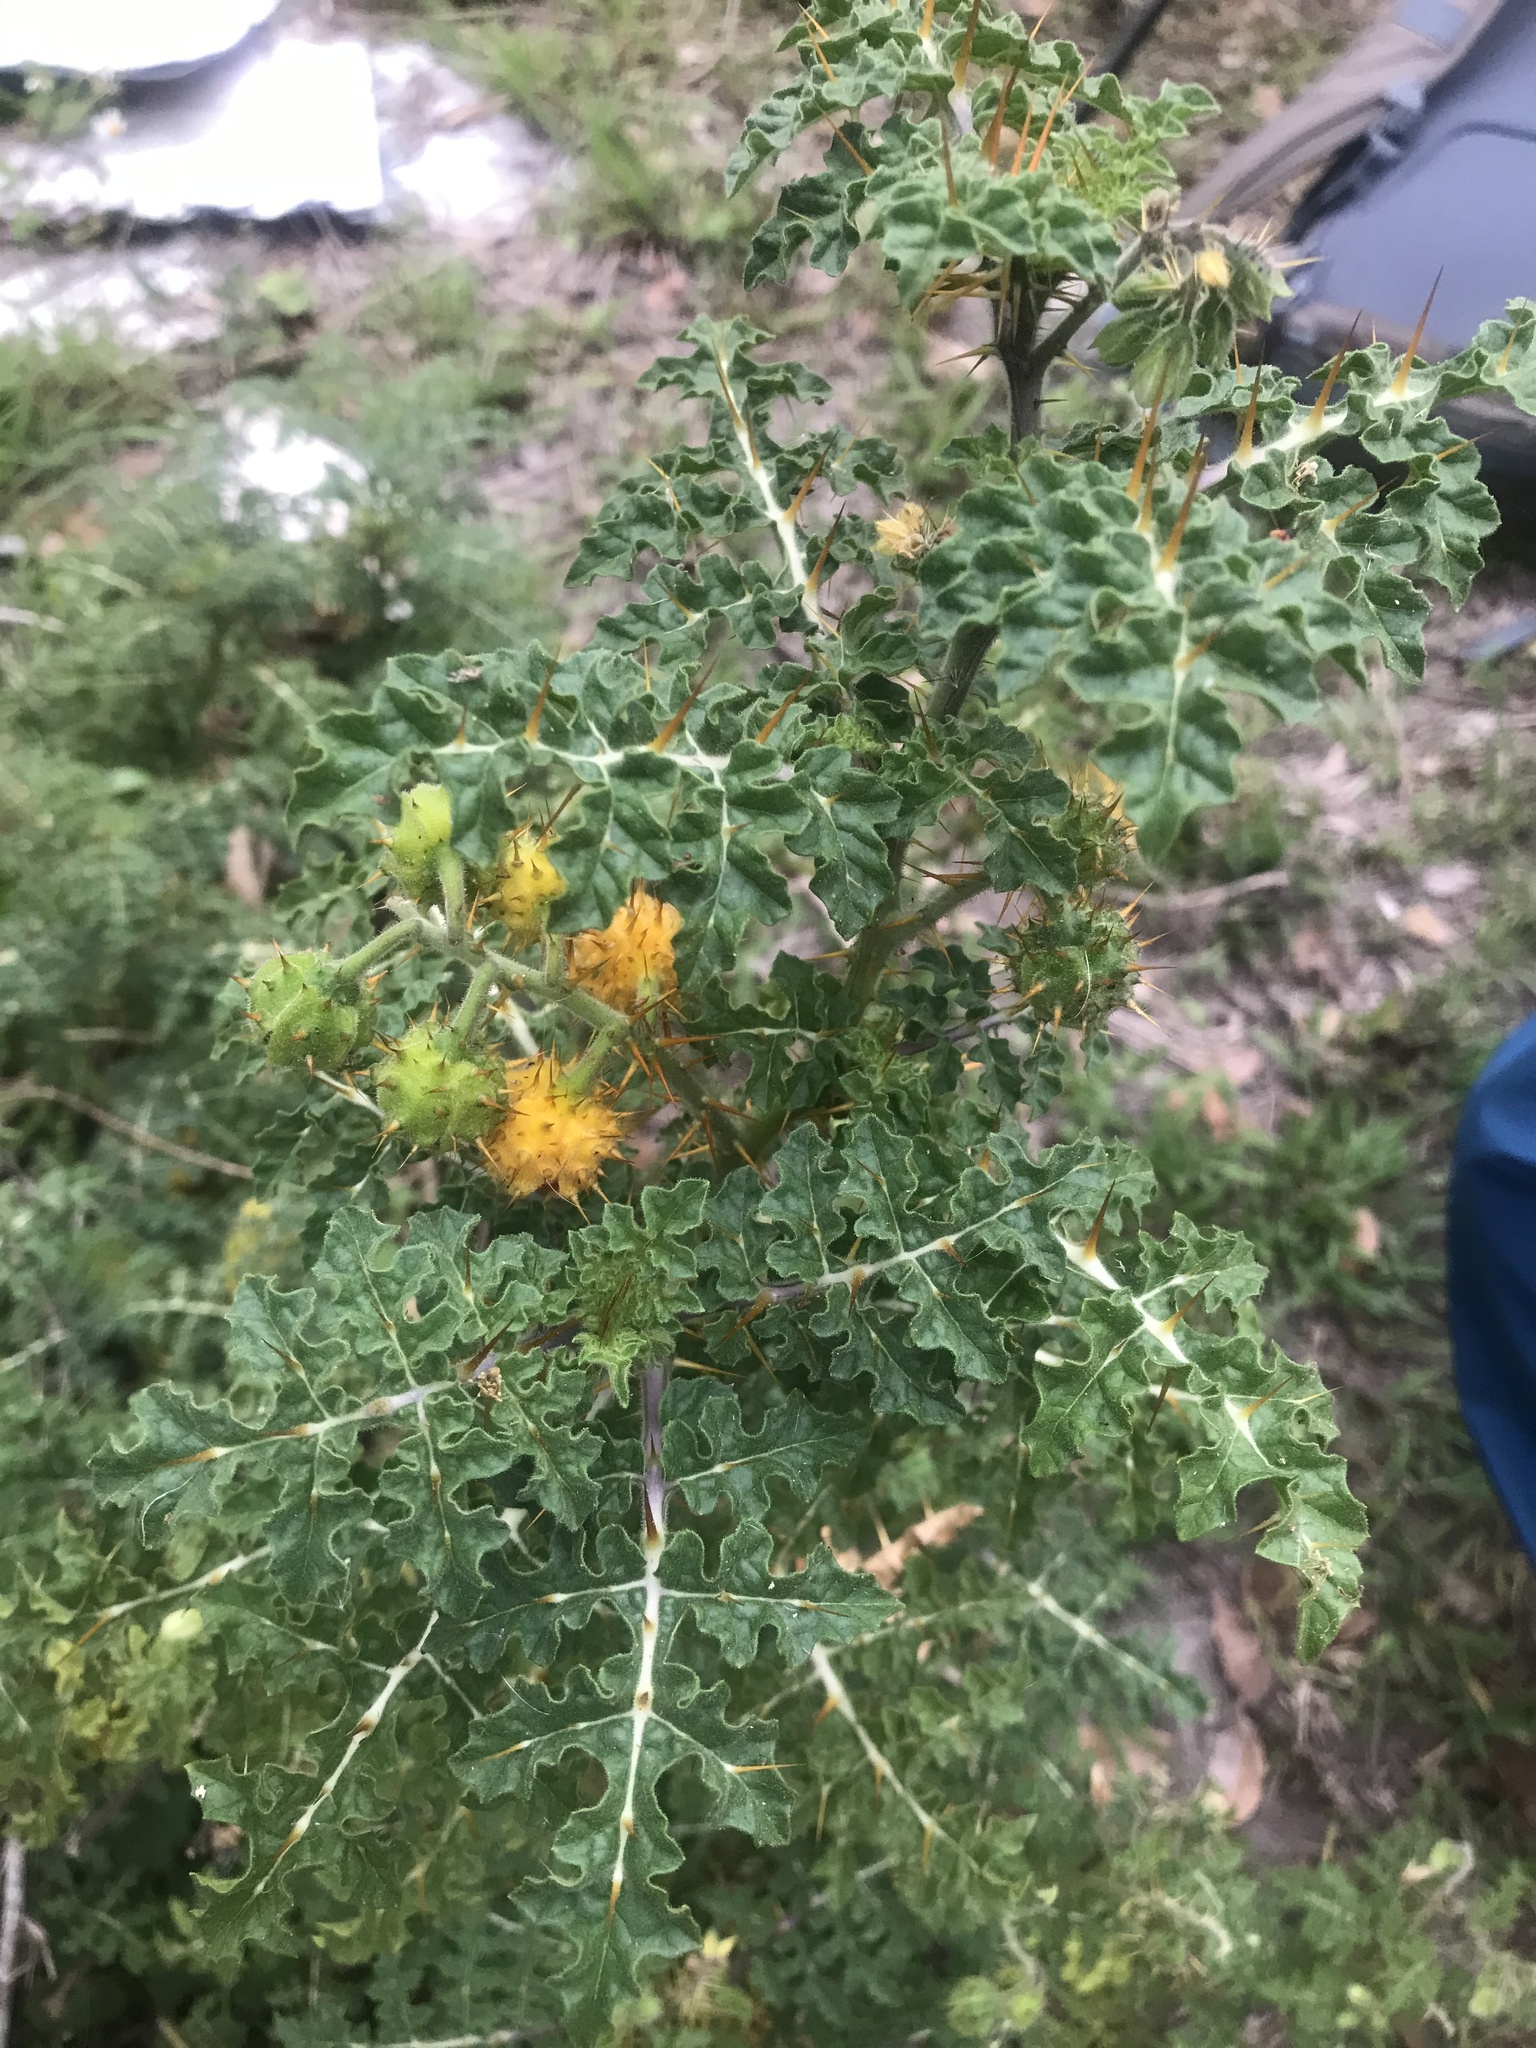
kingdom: Plantae
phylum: Tracheophyta
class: Magnoliopsida
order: Solanales
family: Solanaceae
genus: Solanum
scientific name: Solanum sisymbriifolium
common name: Red buffalo-bur
